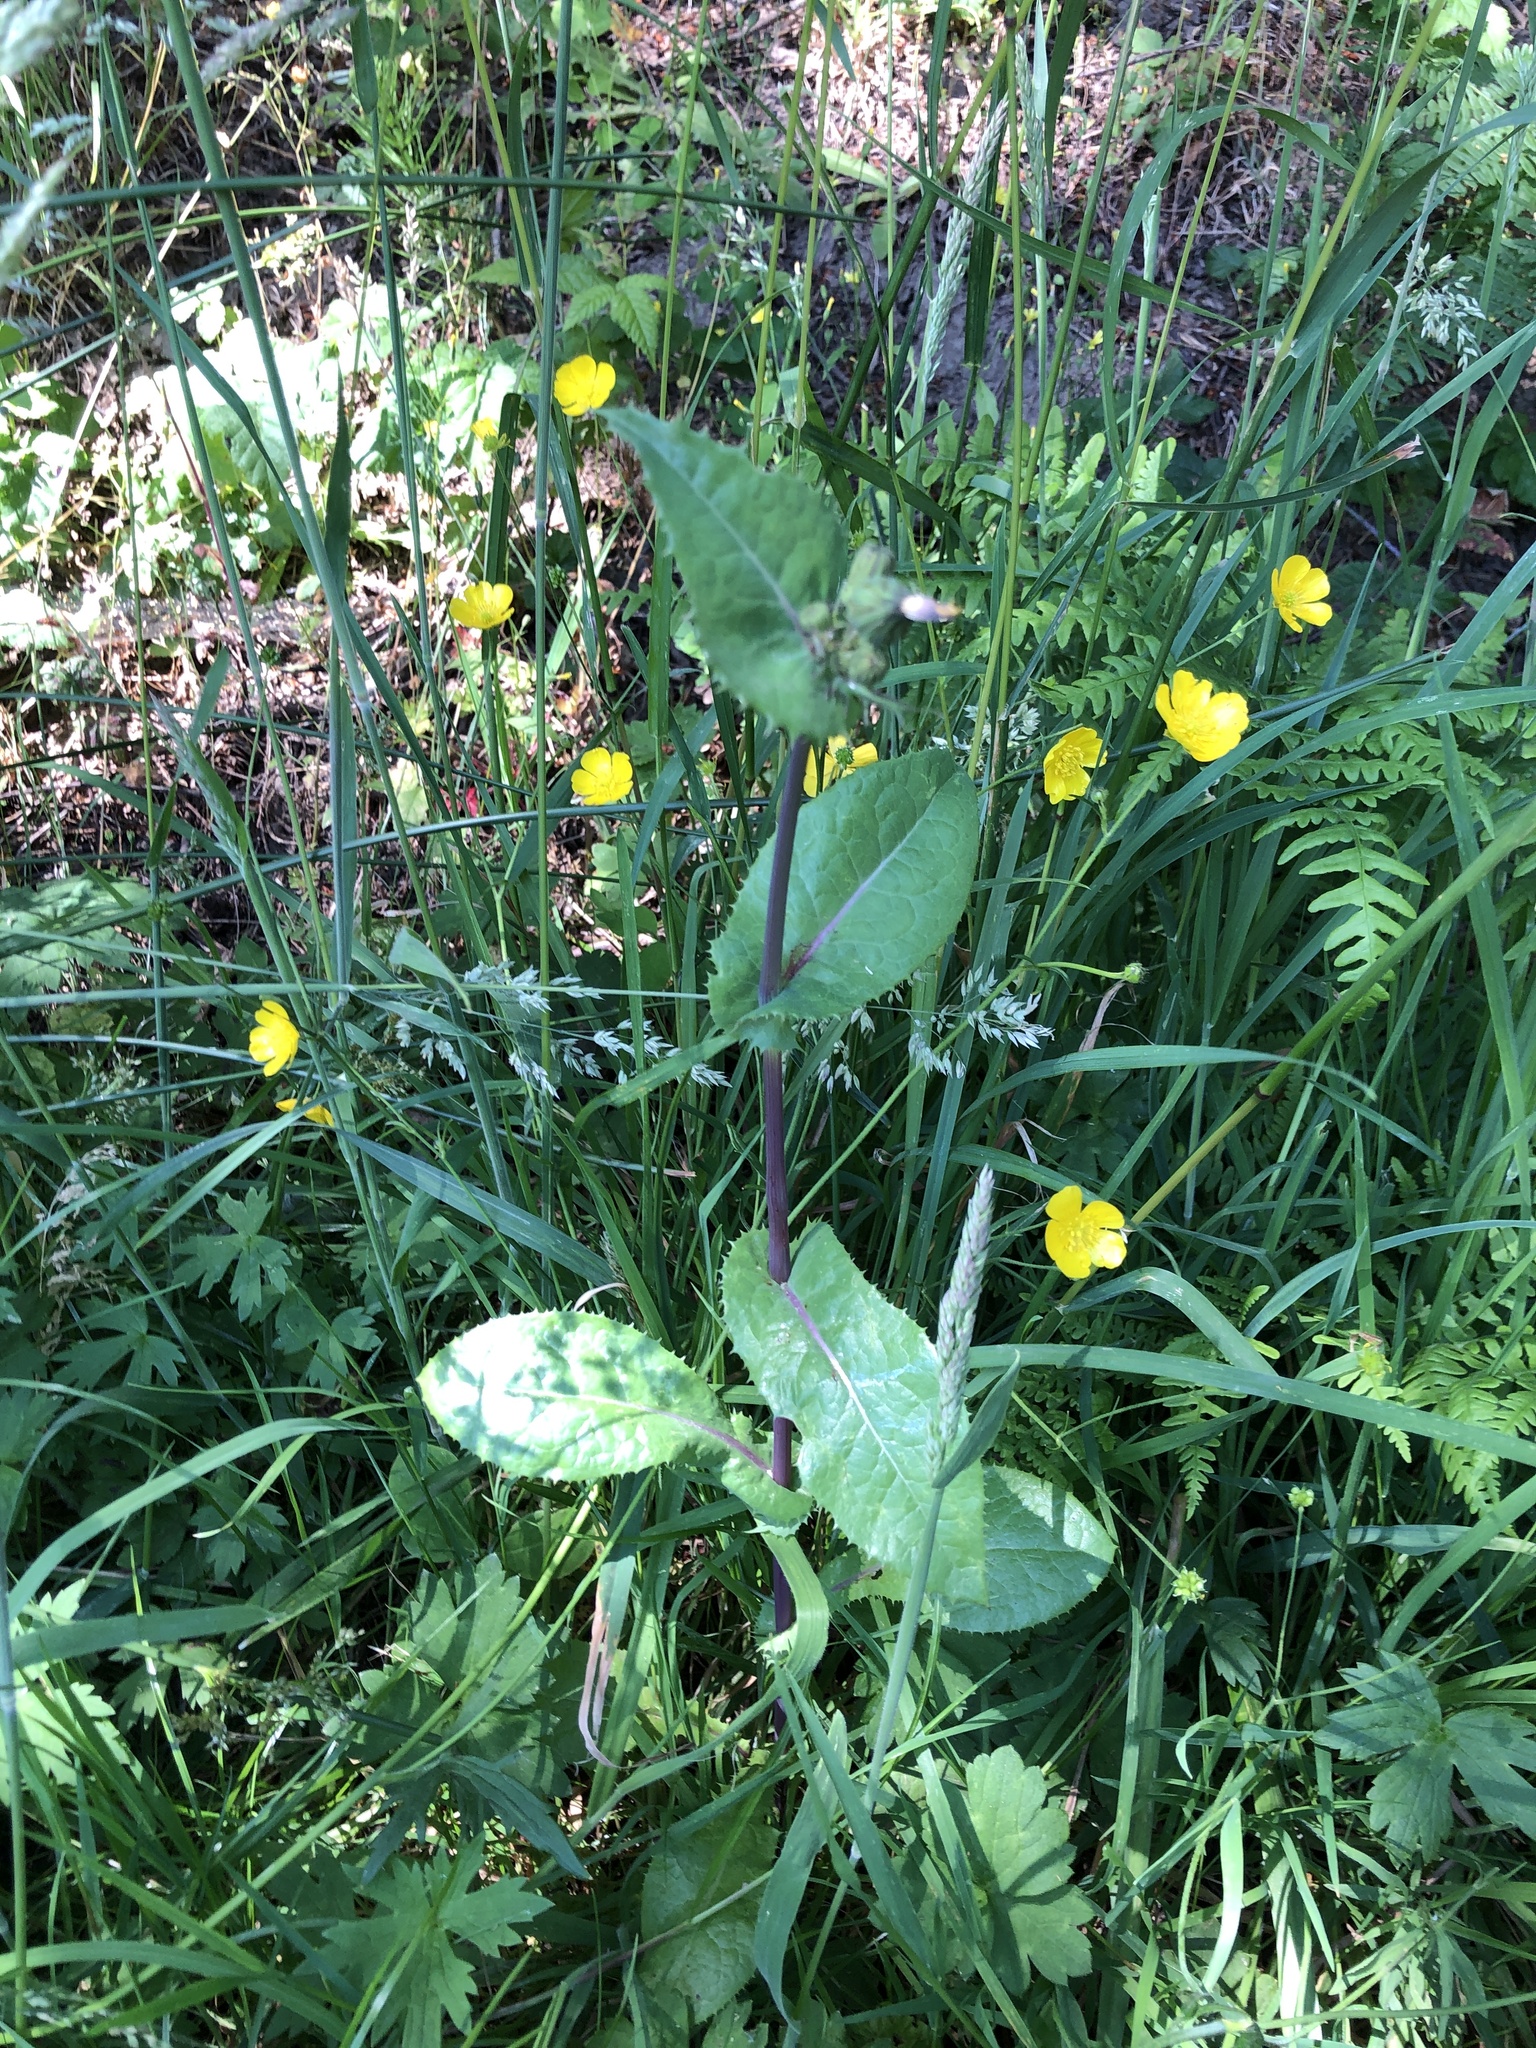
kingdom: Plantae
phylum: Tracheophyta
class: Magnoliopsida
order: Asterales
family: Asteraceae
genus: Sonchus
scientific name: Sonchus asper
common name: Prickly sow-thistle
